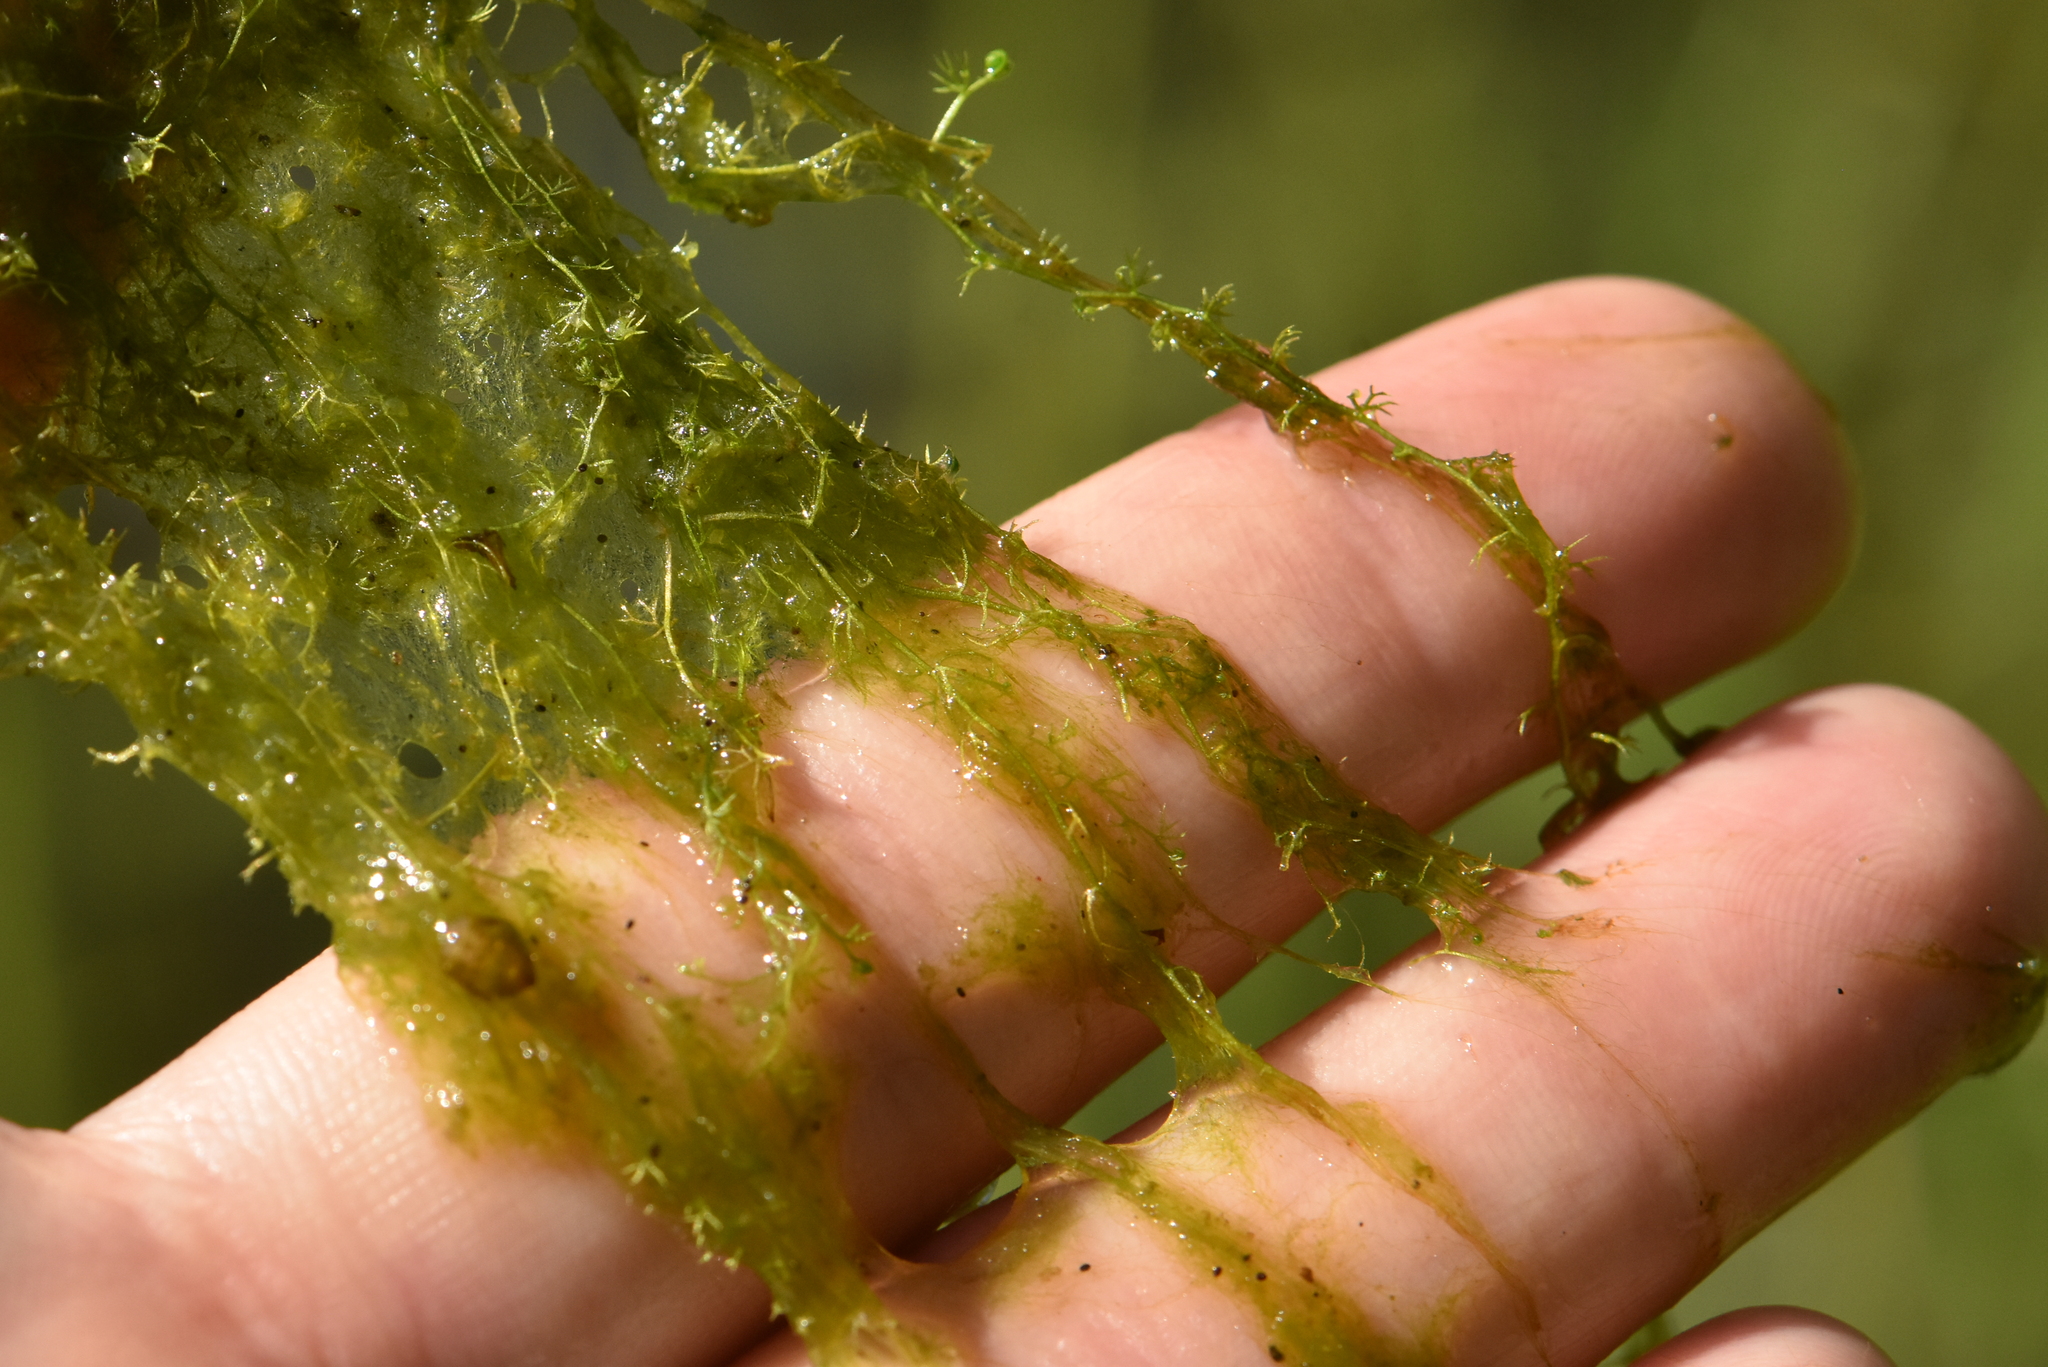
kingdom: Plantae
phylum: Tracheophyta
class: Magnoliopsida
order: Lamiales
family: Lentibulariaceae
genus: Utricularia
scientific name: Utricularia minor
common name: Lesser bladderwort
